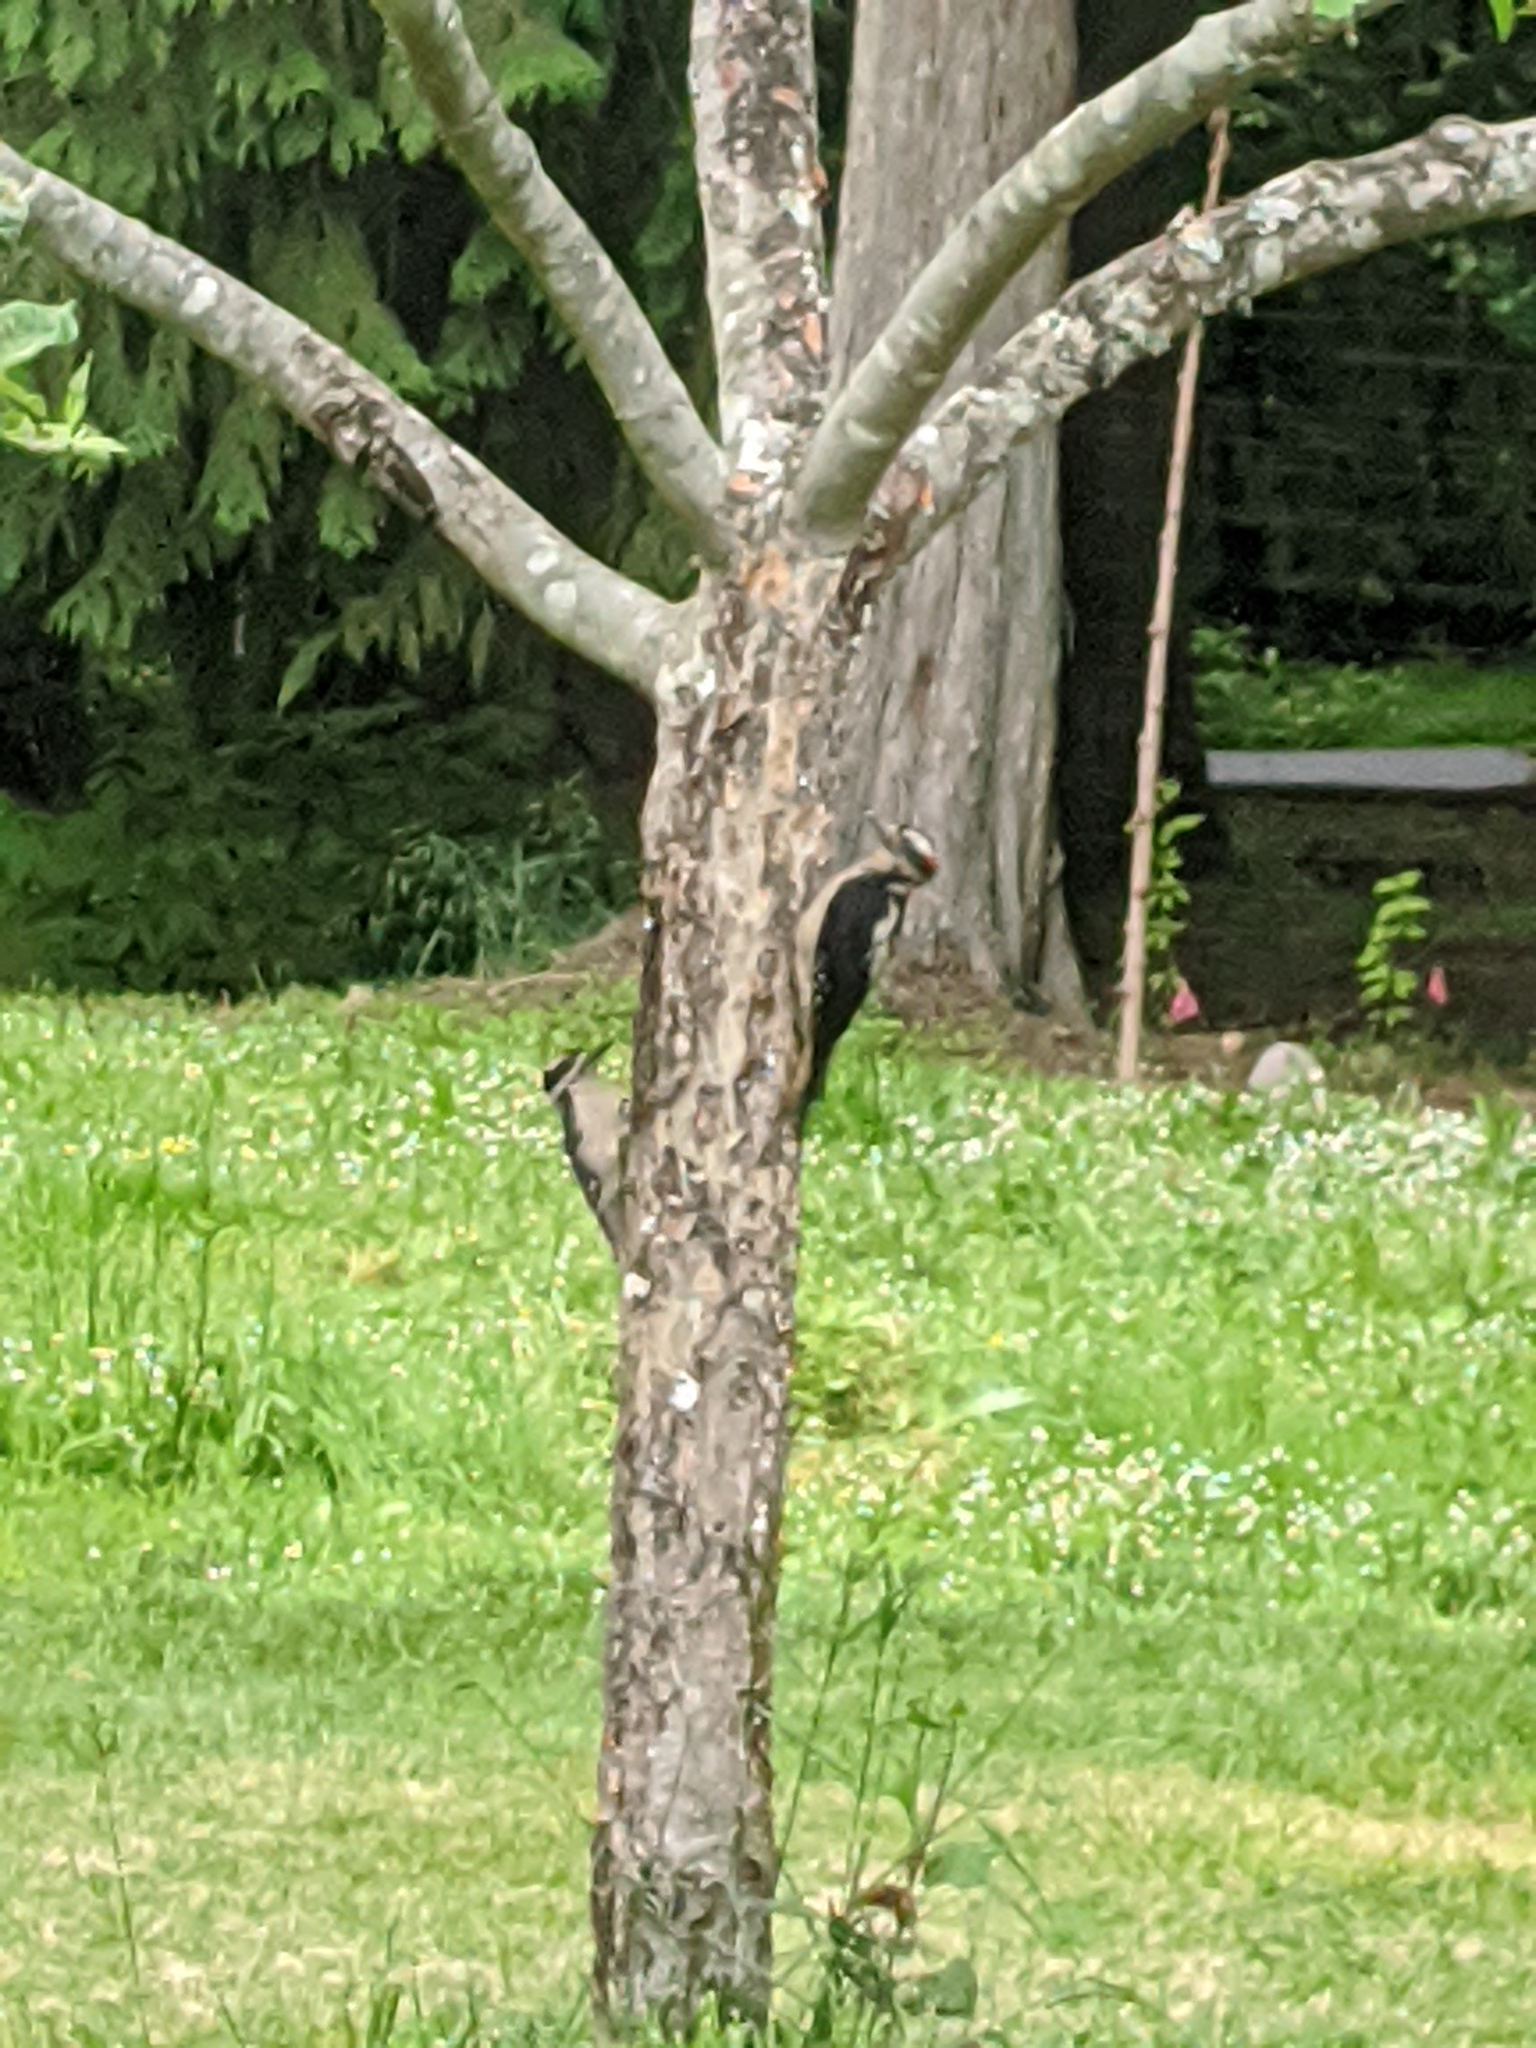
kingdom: Animalia
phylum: Chordata
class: Aves
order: Piciformes
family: Picidae
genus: Leuconotopicus
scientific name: Leuconotopicus villosus
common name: Hairy woodpecker
